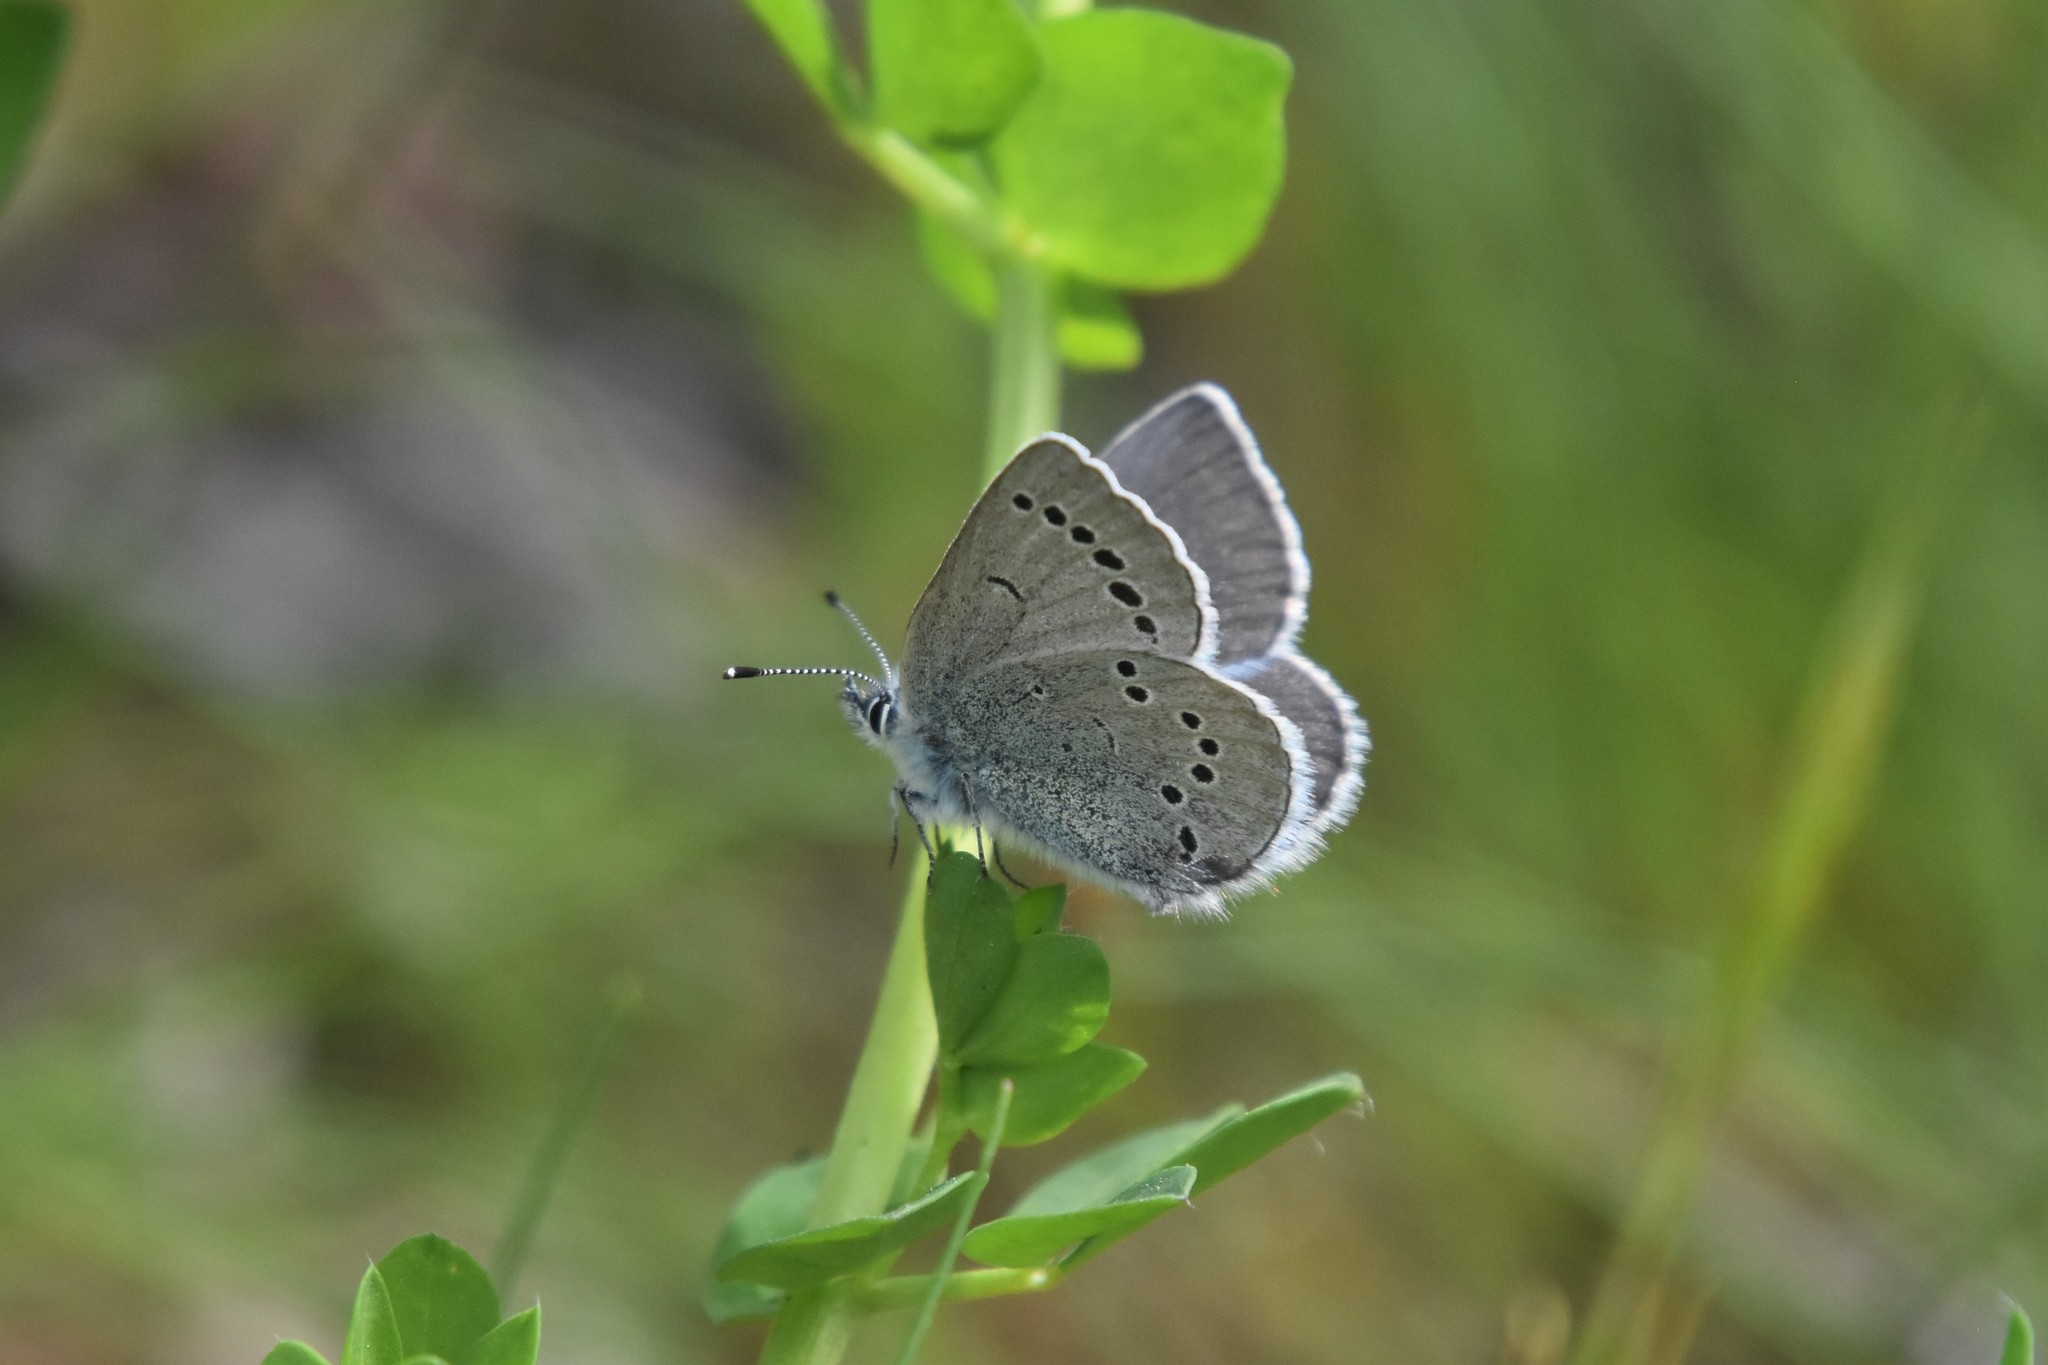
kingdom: Animalia
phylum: Arthropoda
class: Insecta
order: Lepidoptera
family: Lycaenidae
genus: Glaucopsyche
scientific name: Glaucopsyche lygdamus
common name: Silvery blue
